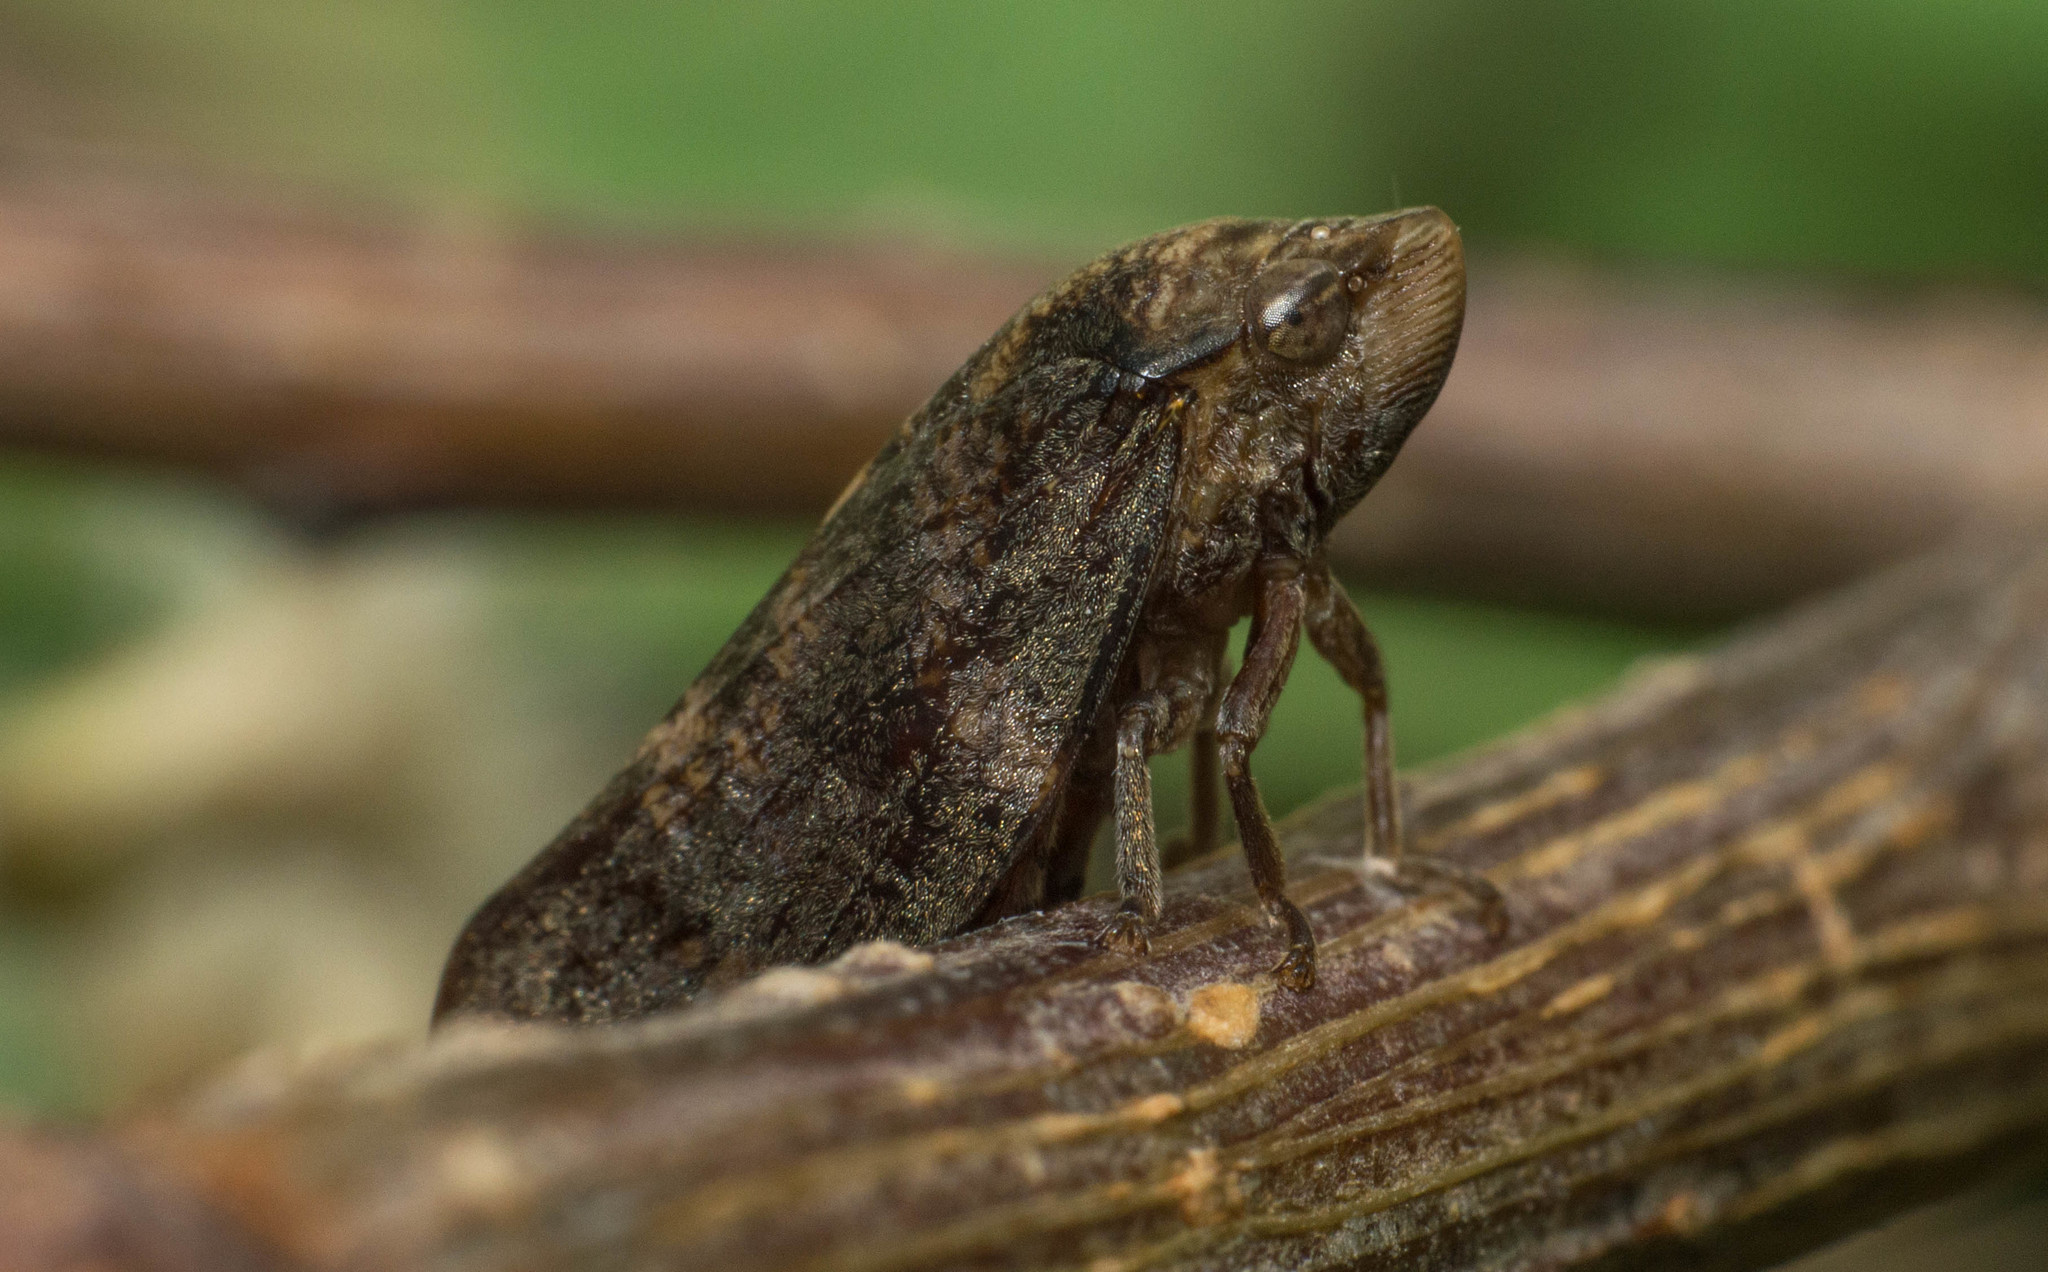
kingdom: Animalia
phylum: Arthropoda
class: Insecta
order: Hemiptera
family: Aphrophoridae
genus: Cephisus
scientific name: Cephisus siccifolius
